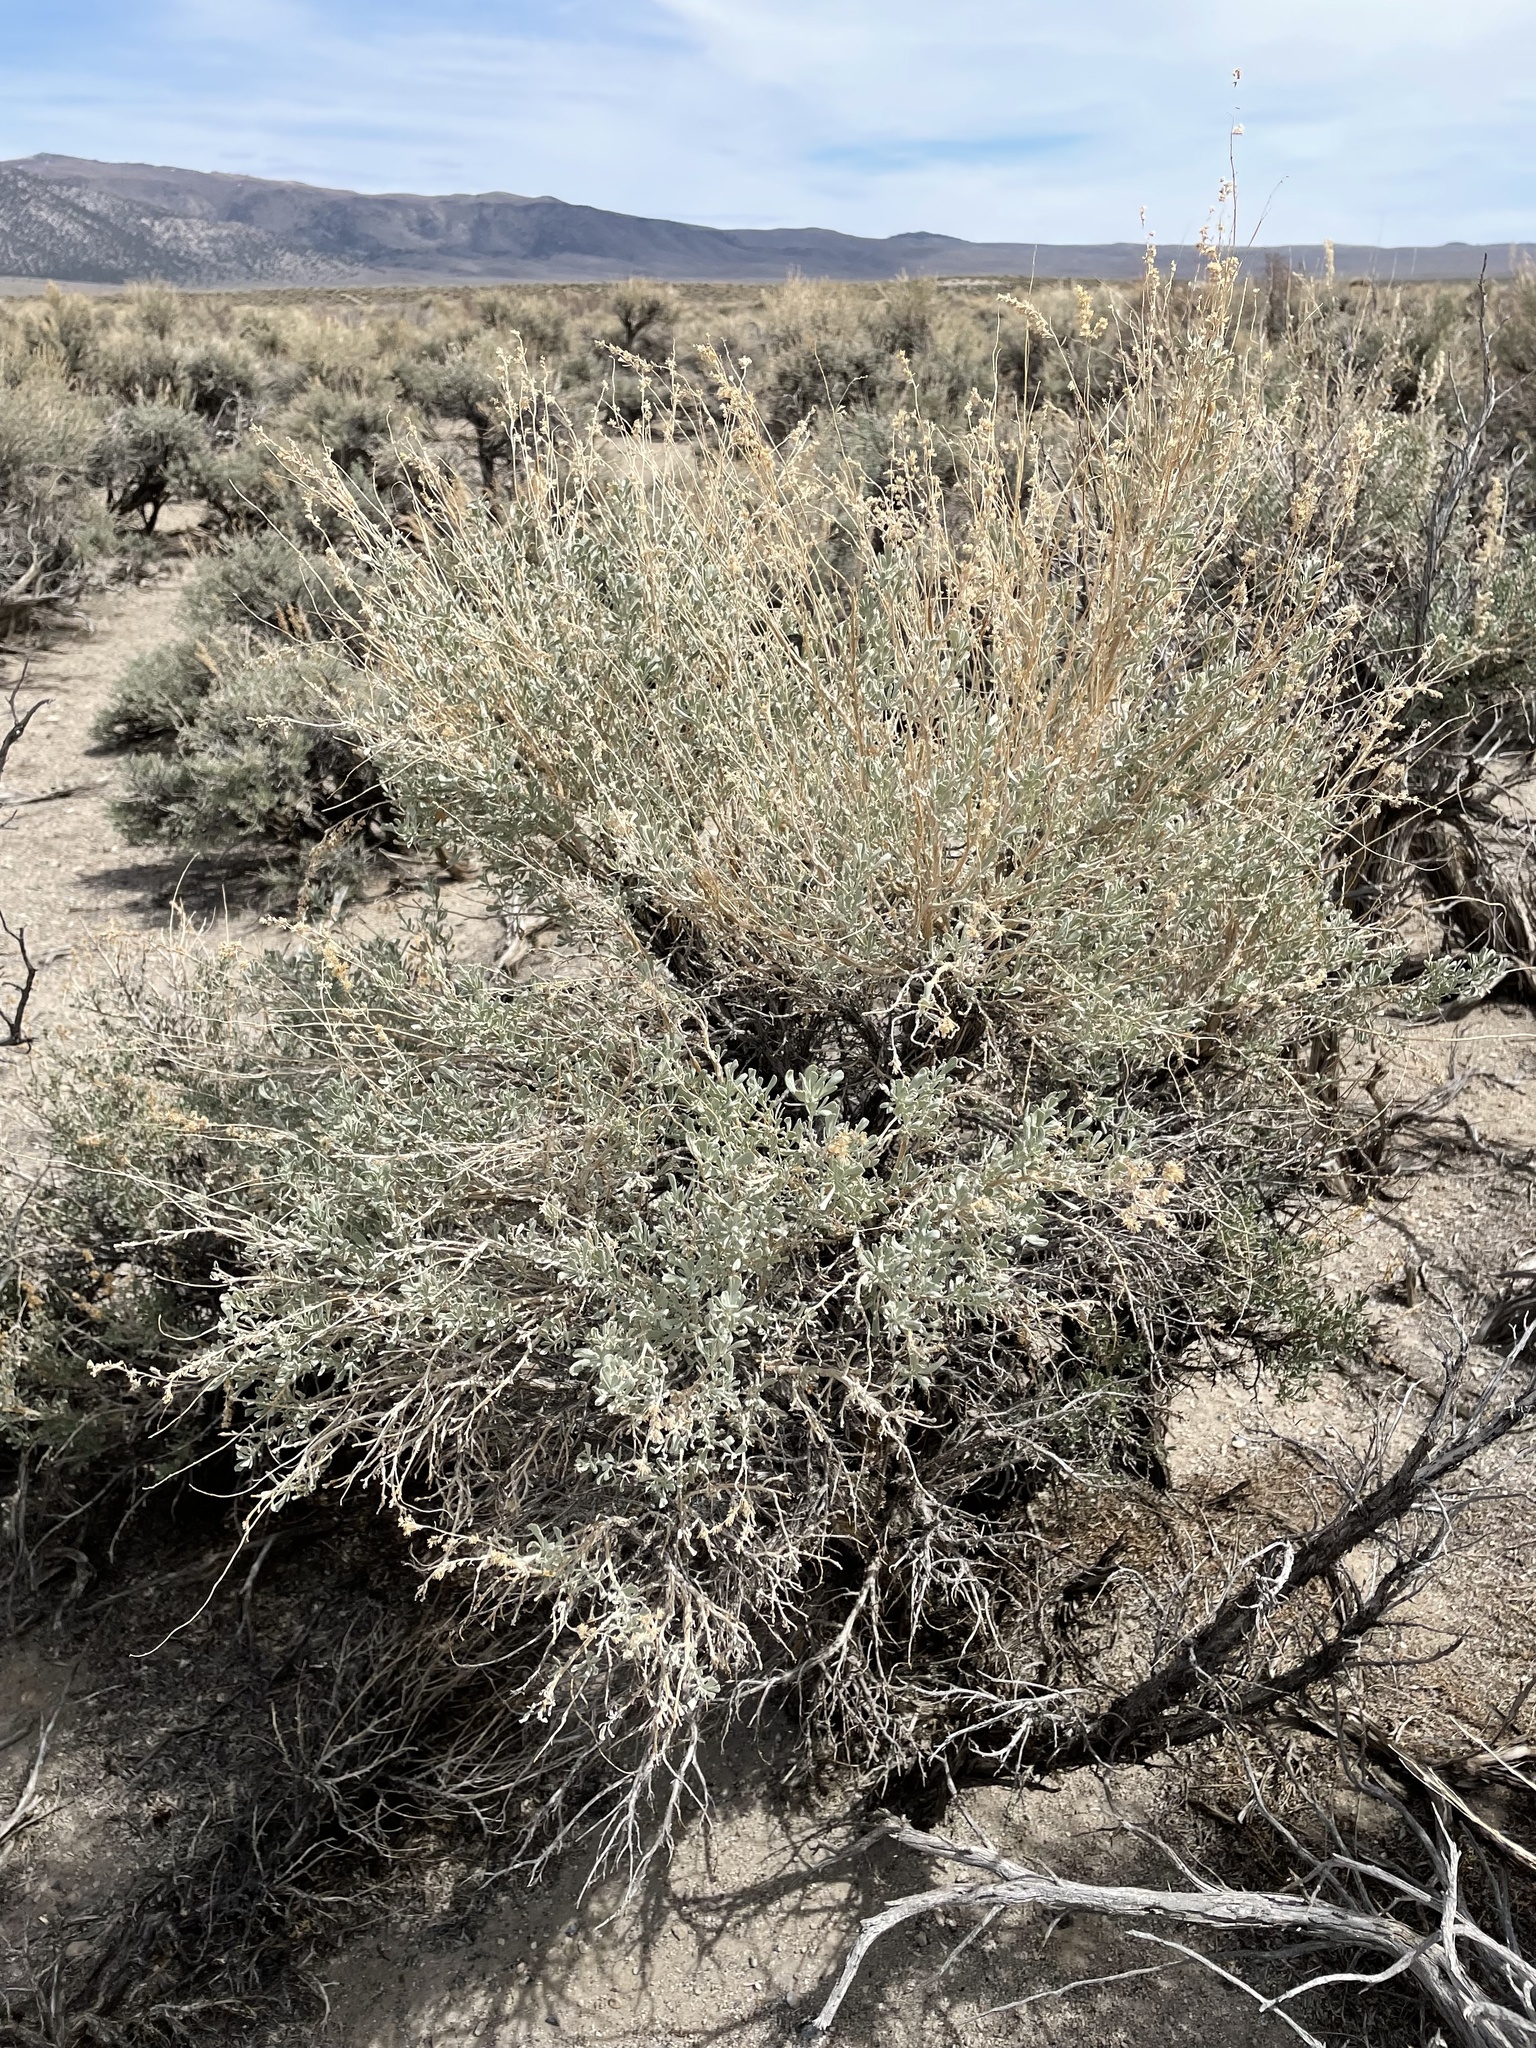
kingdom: Plantae
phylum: Tracheophyta
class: Magnoliopsida
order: Asterales
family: Asteraceae
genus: Artemisia
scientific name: Artemisia tridentata
